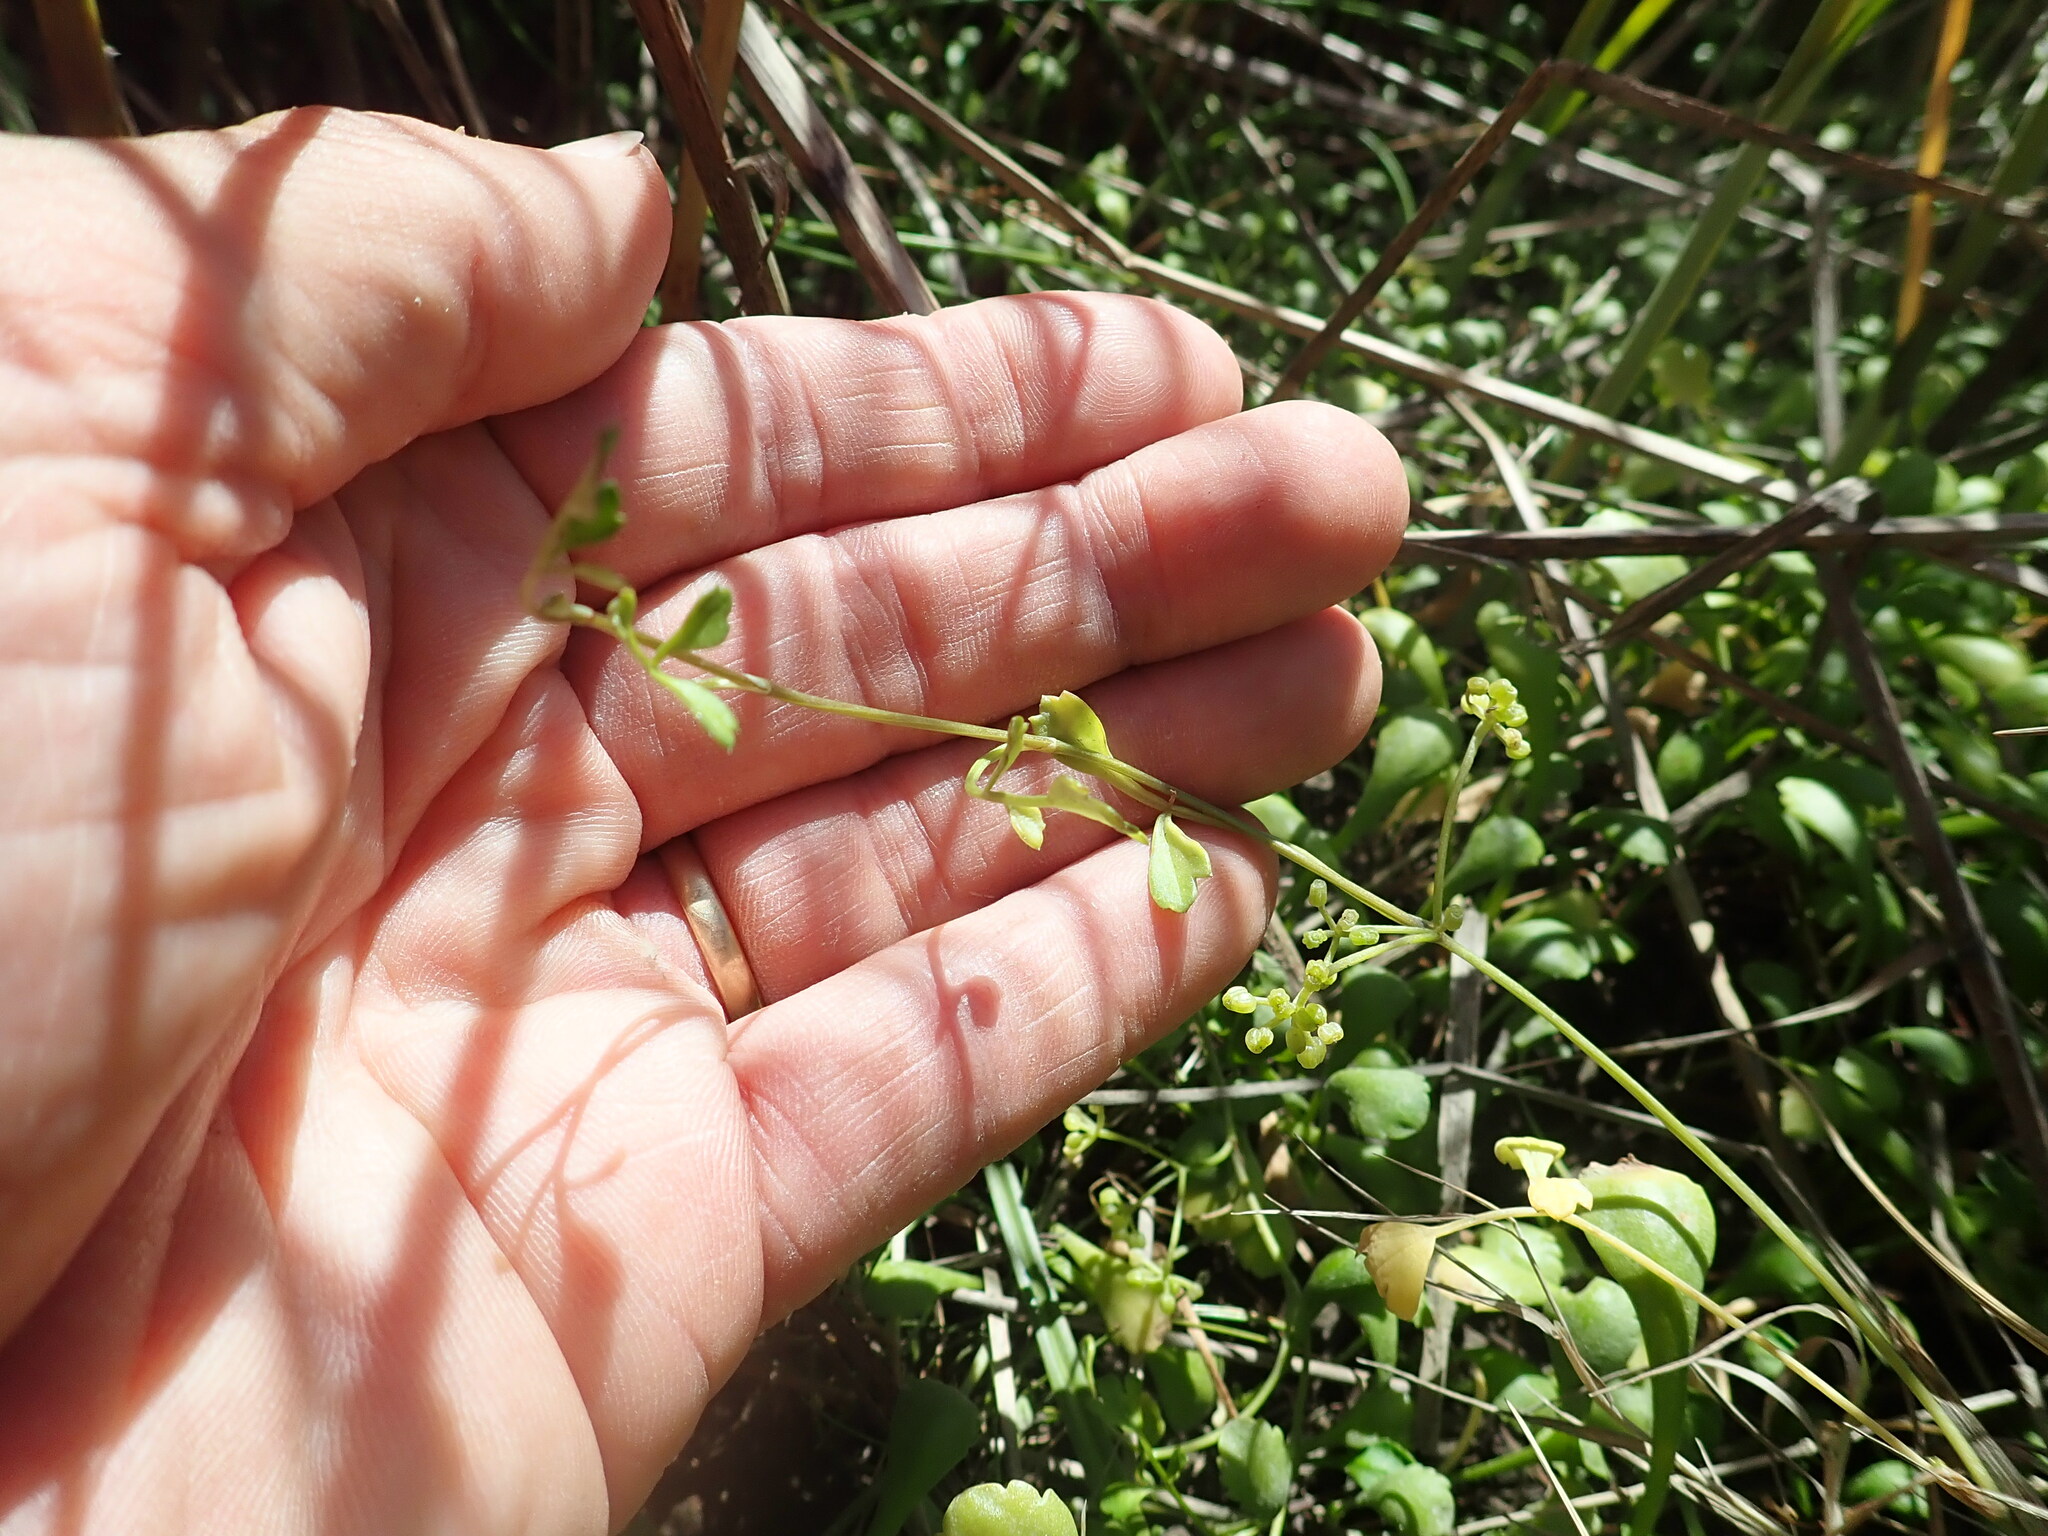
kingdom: Plantae
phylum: Tracheophyta
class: Magnoliopsida
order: Apiales
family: Apiaceae
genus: Apium
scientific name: Apium prostratum
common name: Prostrate marshwort
